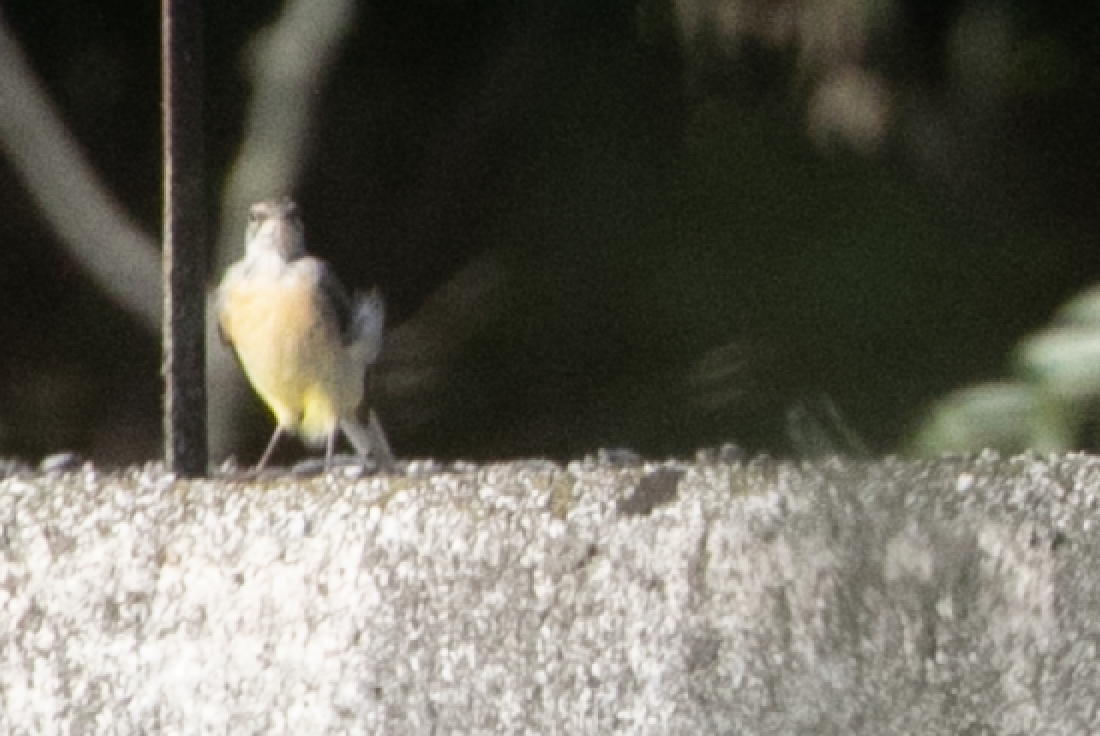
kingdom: Animalia
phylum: Chordata
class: Aves
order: Passeriformes
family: Motacillidae
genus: Motacilla
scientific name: Motacilla cinerea
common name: Grey wagtail
